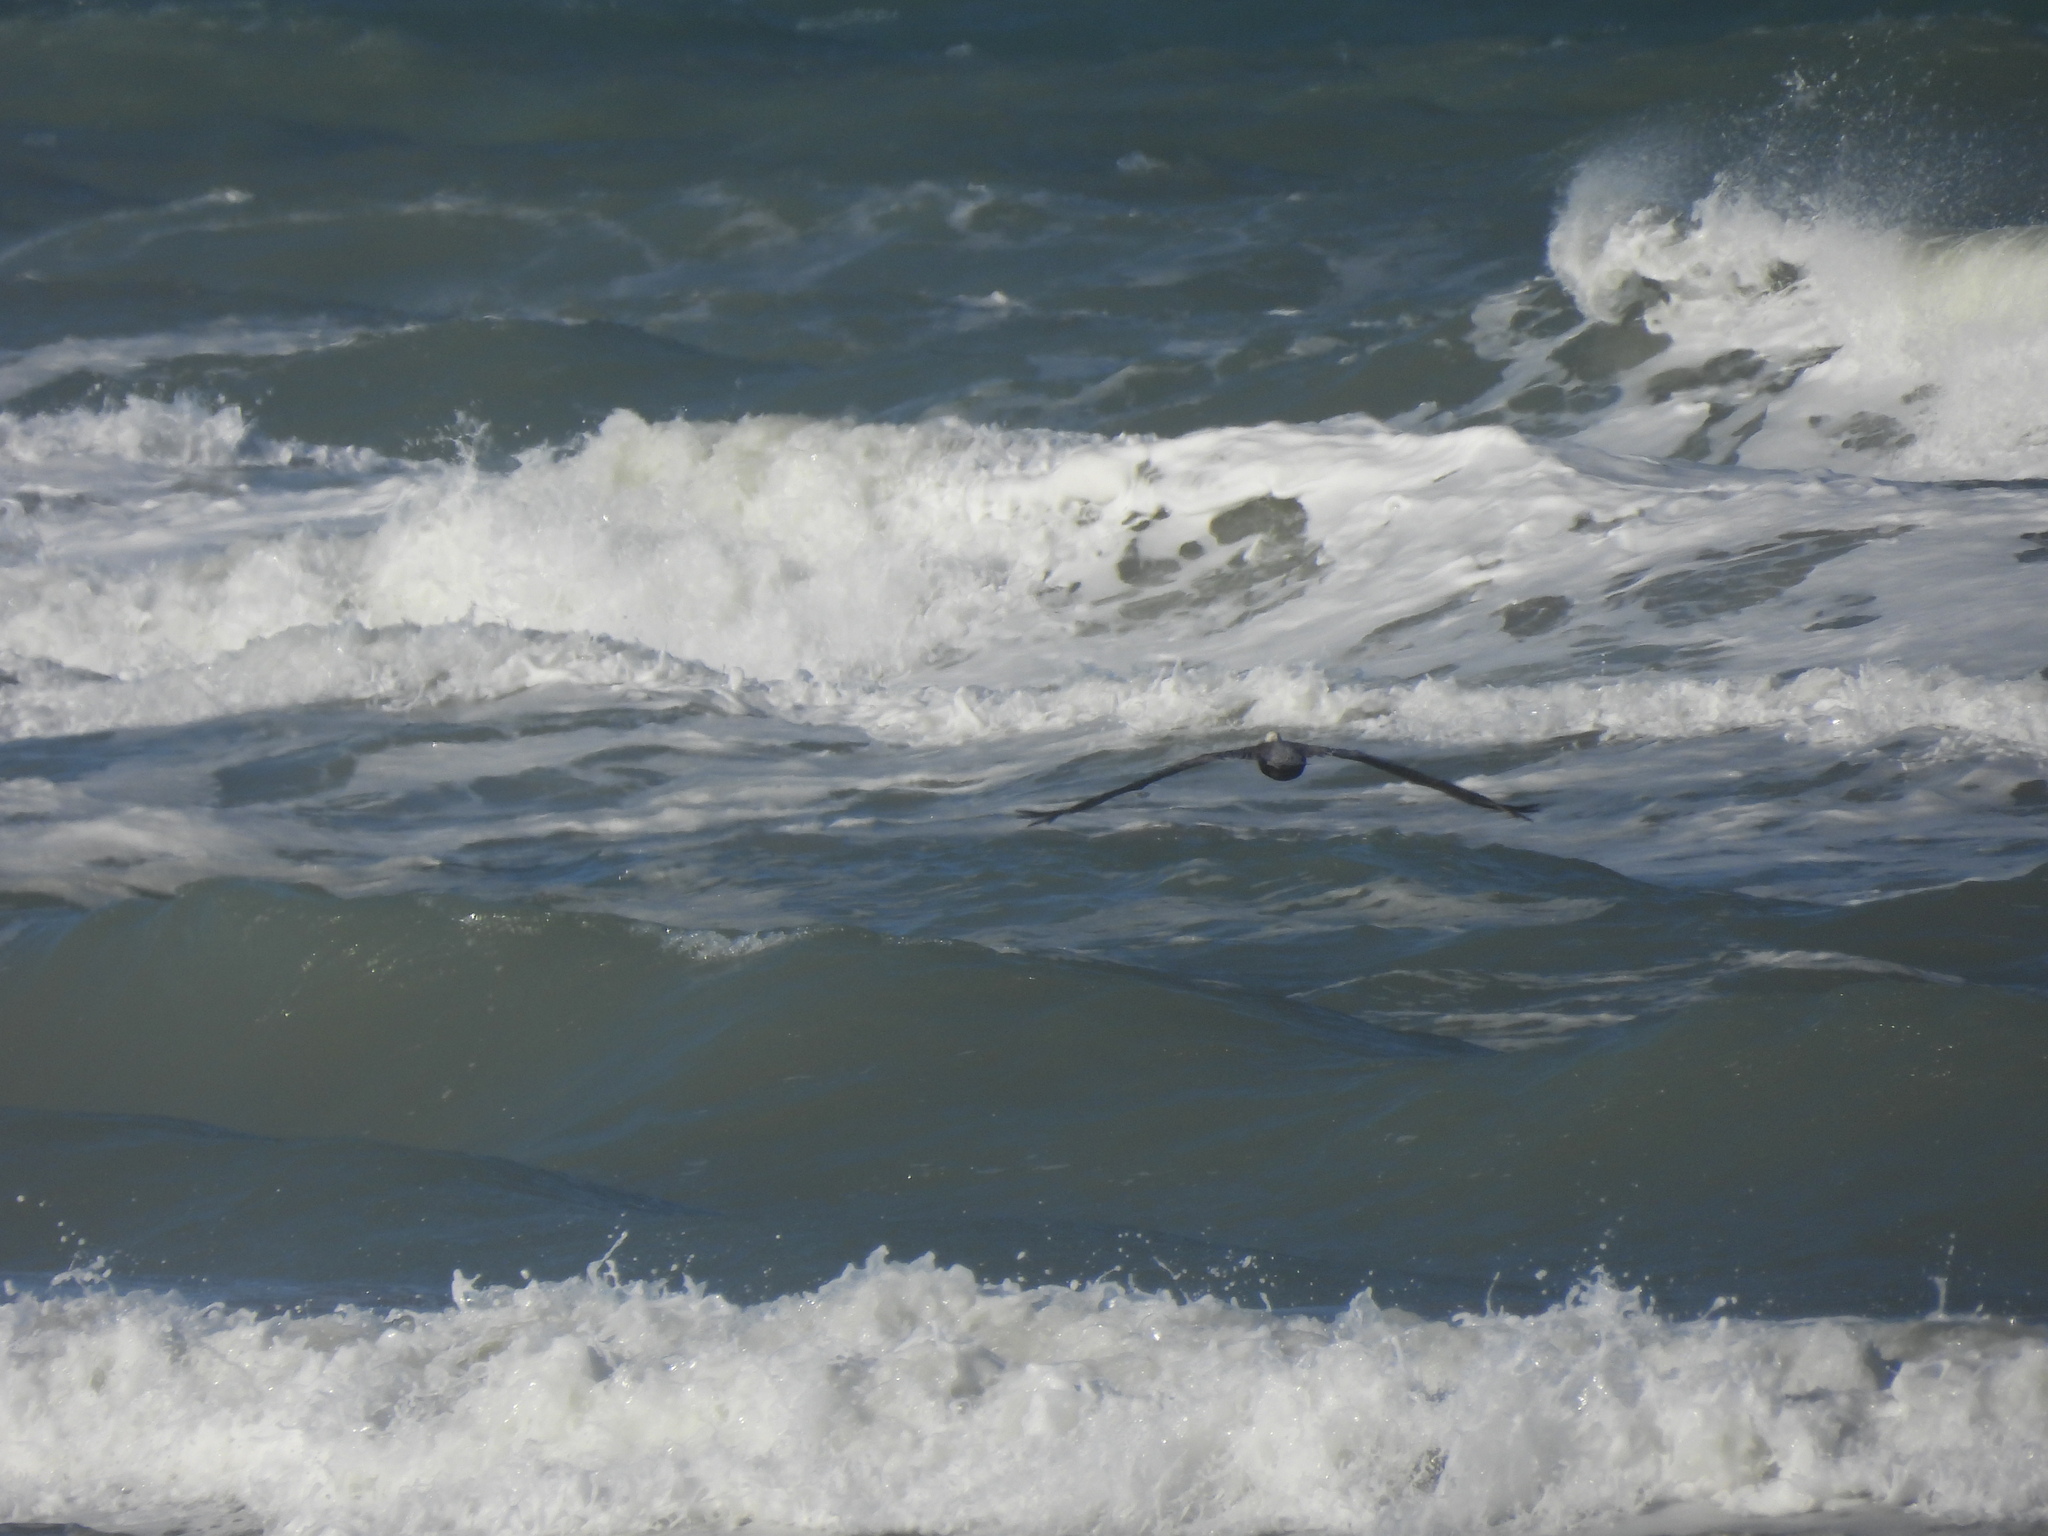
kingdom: Animalia
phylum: Chordata
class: Aves
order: Pelecaniformes
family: Pelecanidae
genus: Pelecanus
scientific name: Pelecanus occidentalis
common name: Brown pelican
